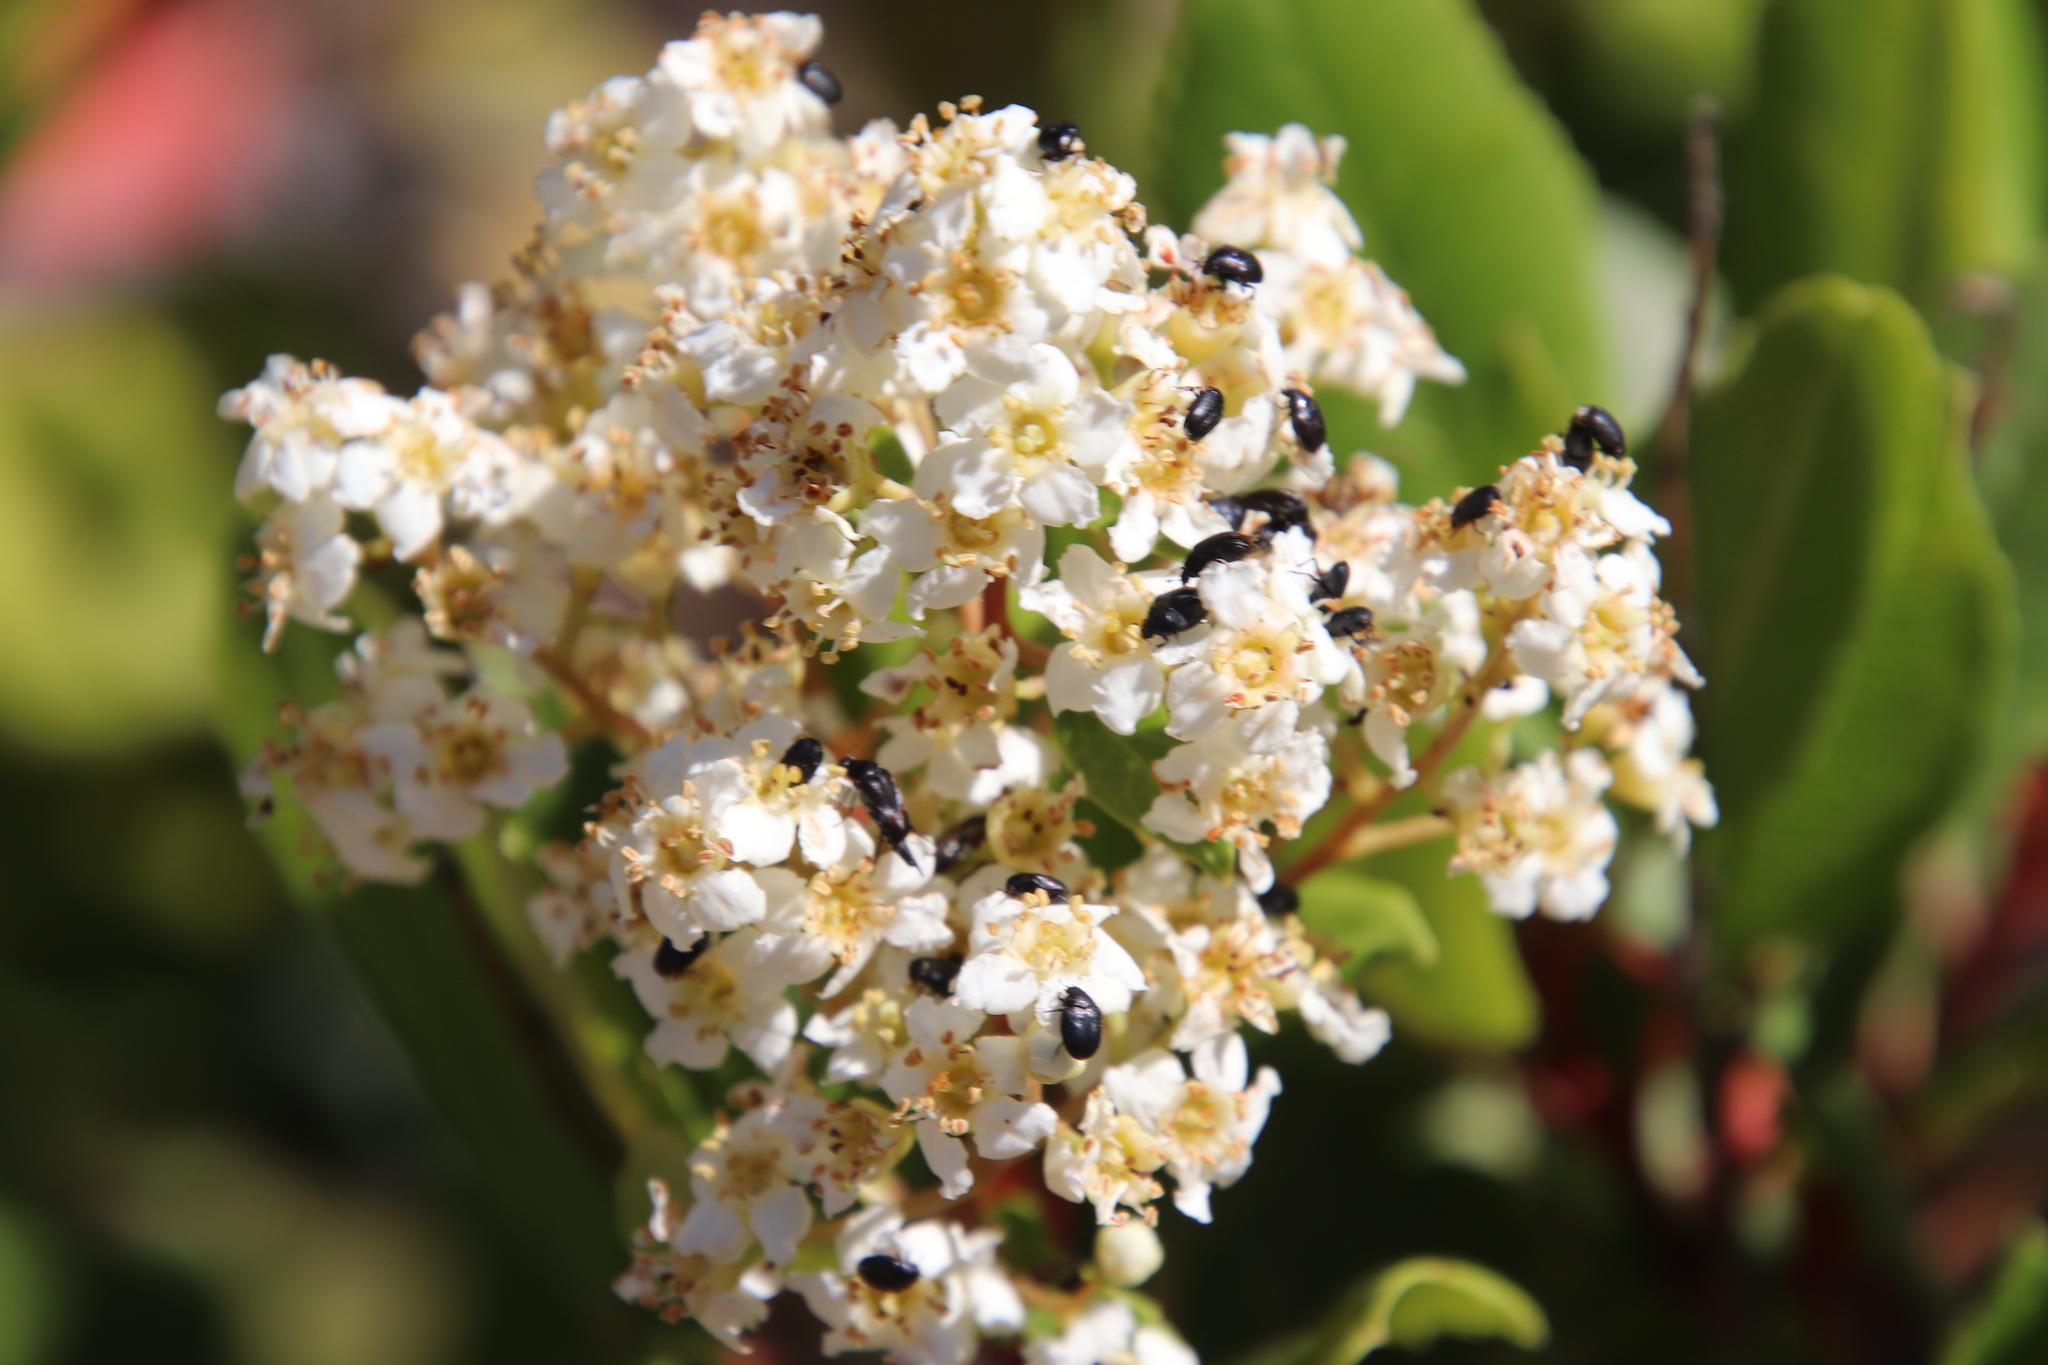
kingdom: Plantae
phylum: Tracheophyta
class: Magnoliopsida
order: Rosales
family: Rosaceae
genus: Heteromeles
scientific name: Heteromeles arbutifolia
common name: California-holly
